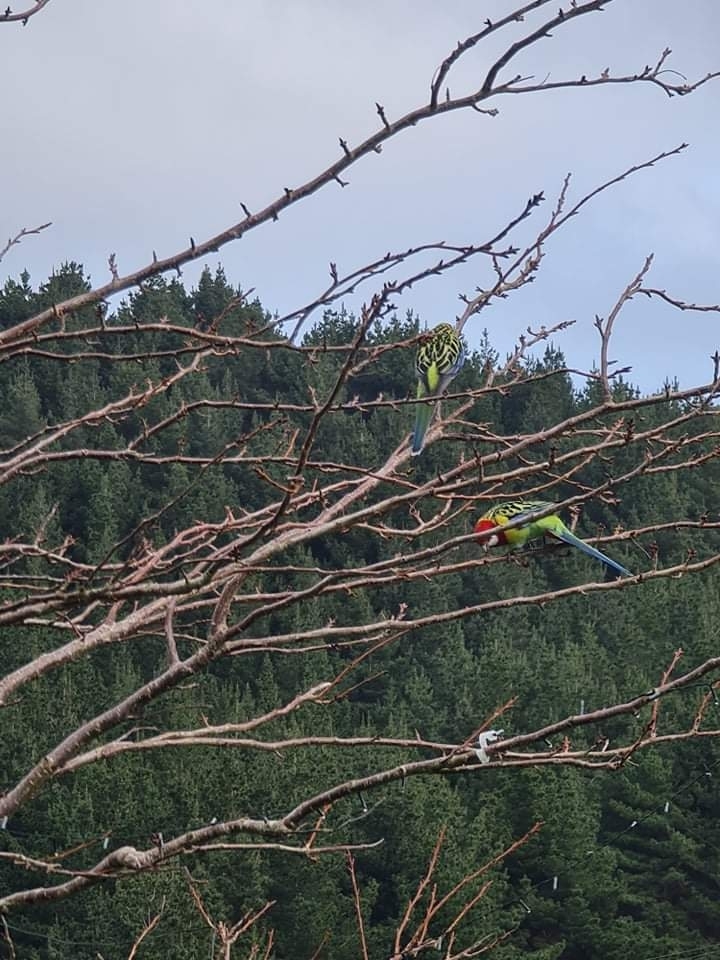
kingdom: Animalia
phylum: Chordata
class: Aves
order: Psittaciformes
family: Psittacidae
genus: Platycercus
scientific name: Platycercus eximius
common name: Eastern rosella
